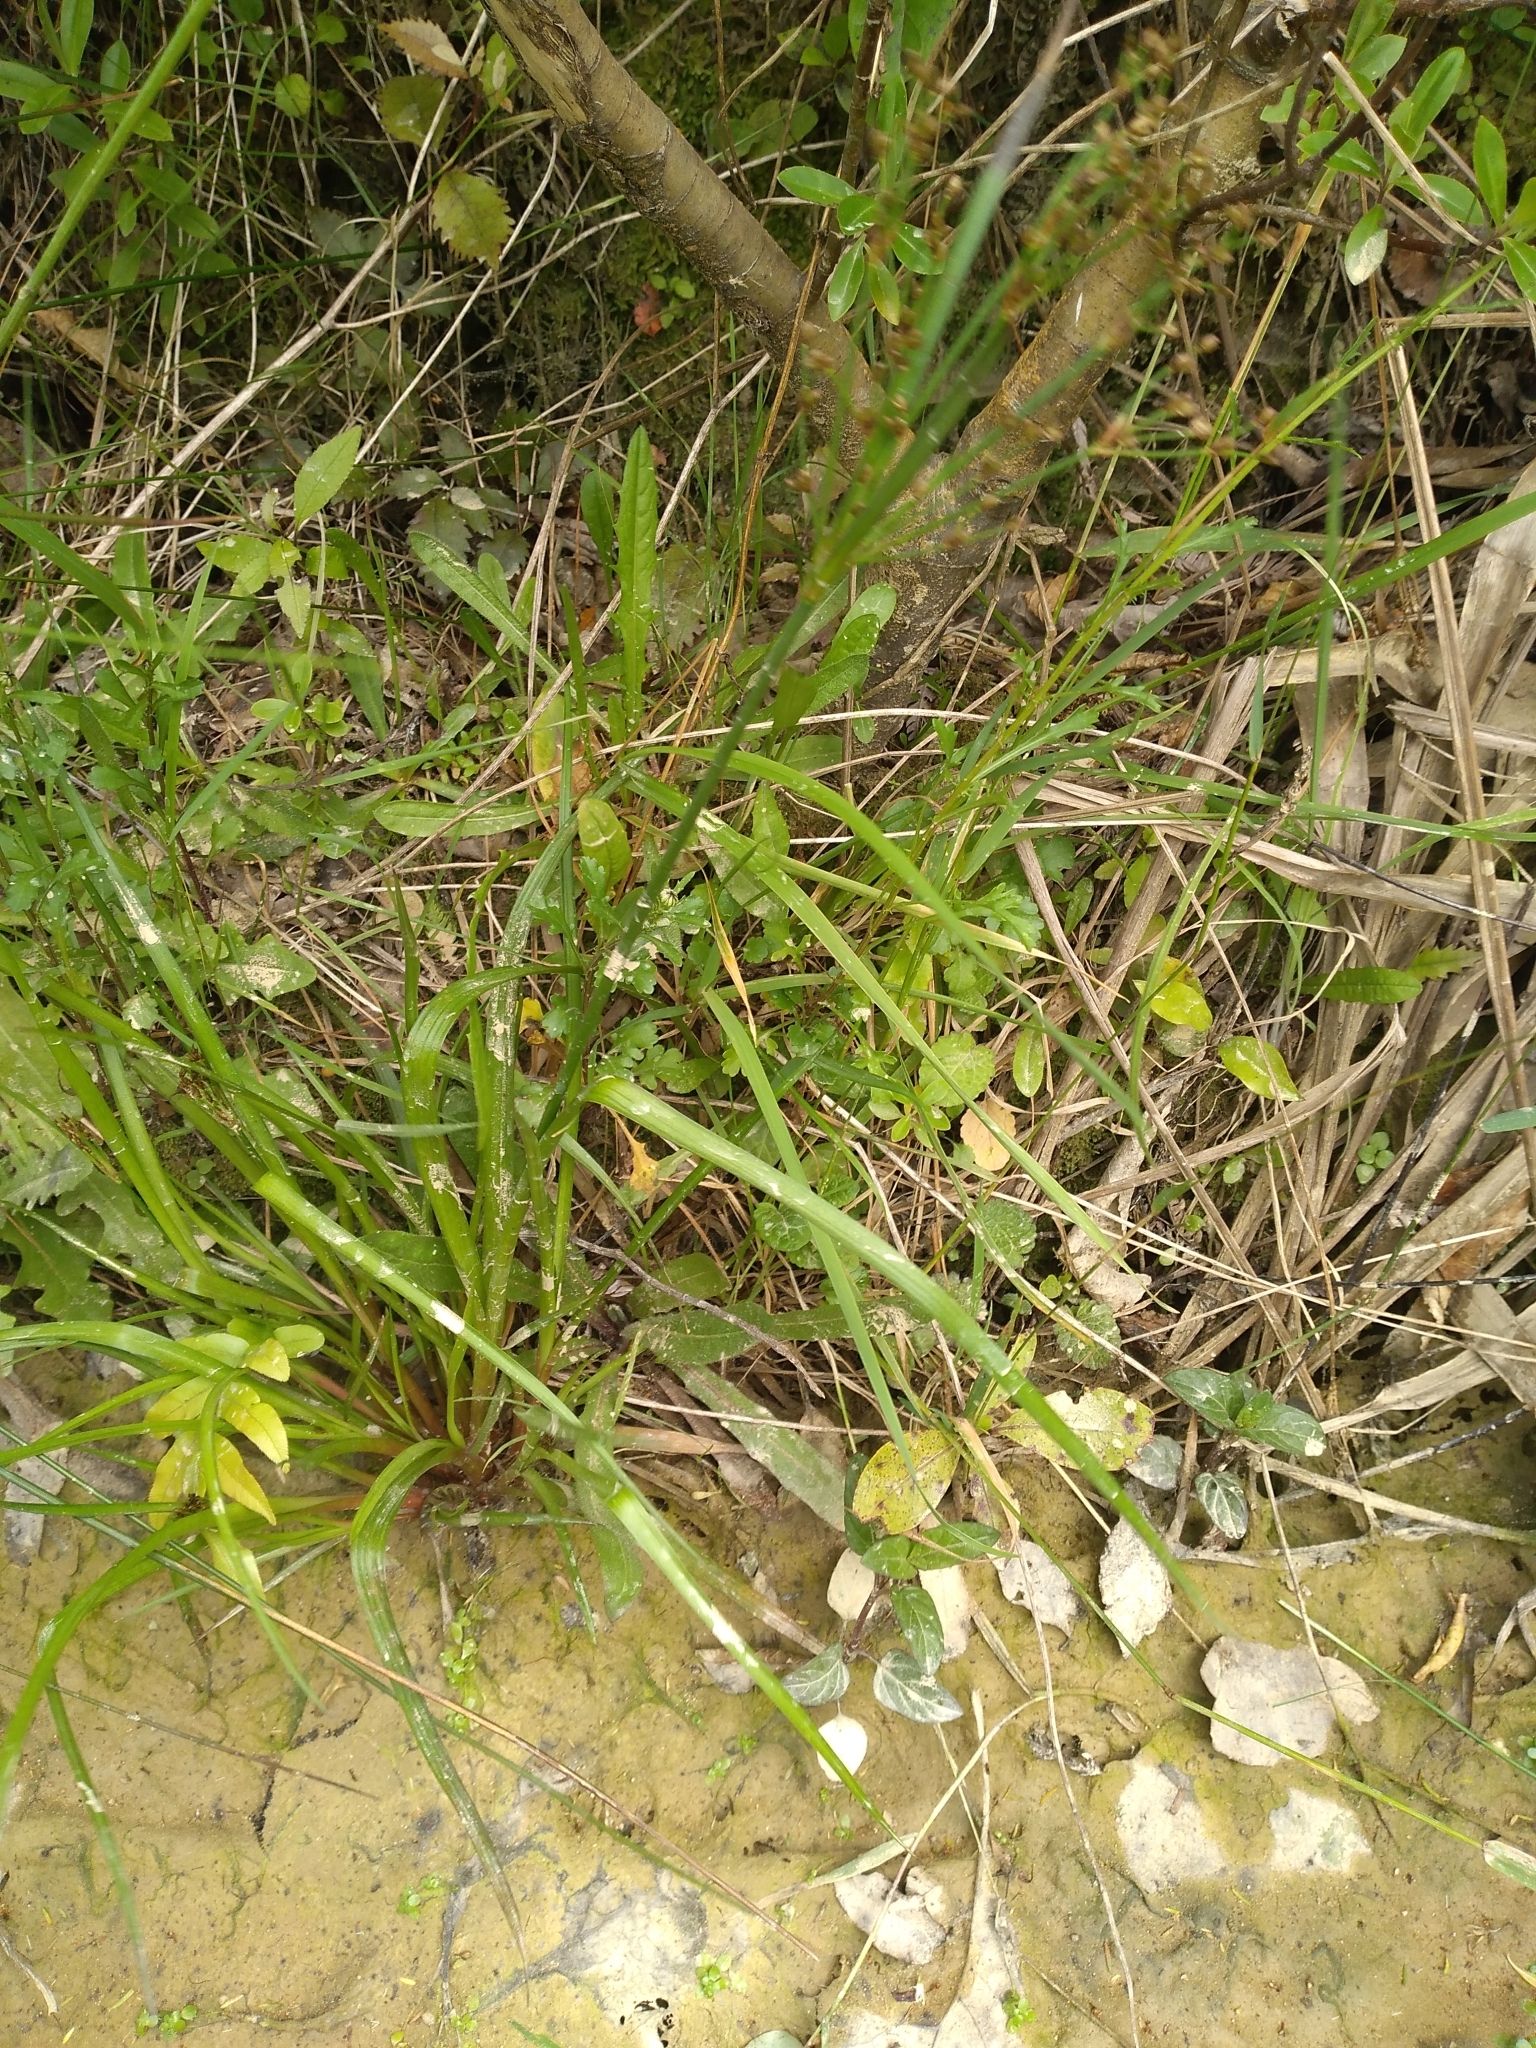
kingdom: Plantae
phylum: Tracheophyta
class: Liliopsida
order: Poales
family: Juncaceae
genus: Juncus
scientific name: Juncus planifolius
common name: Broadleaf rush
